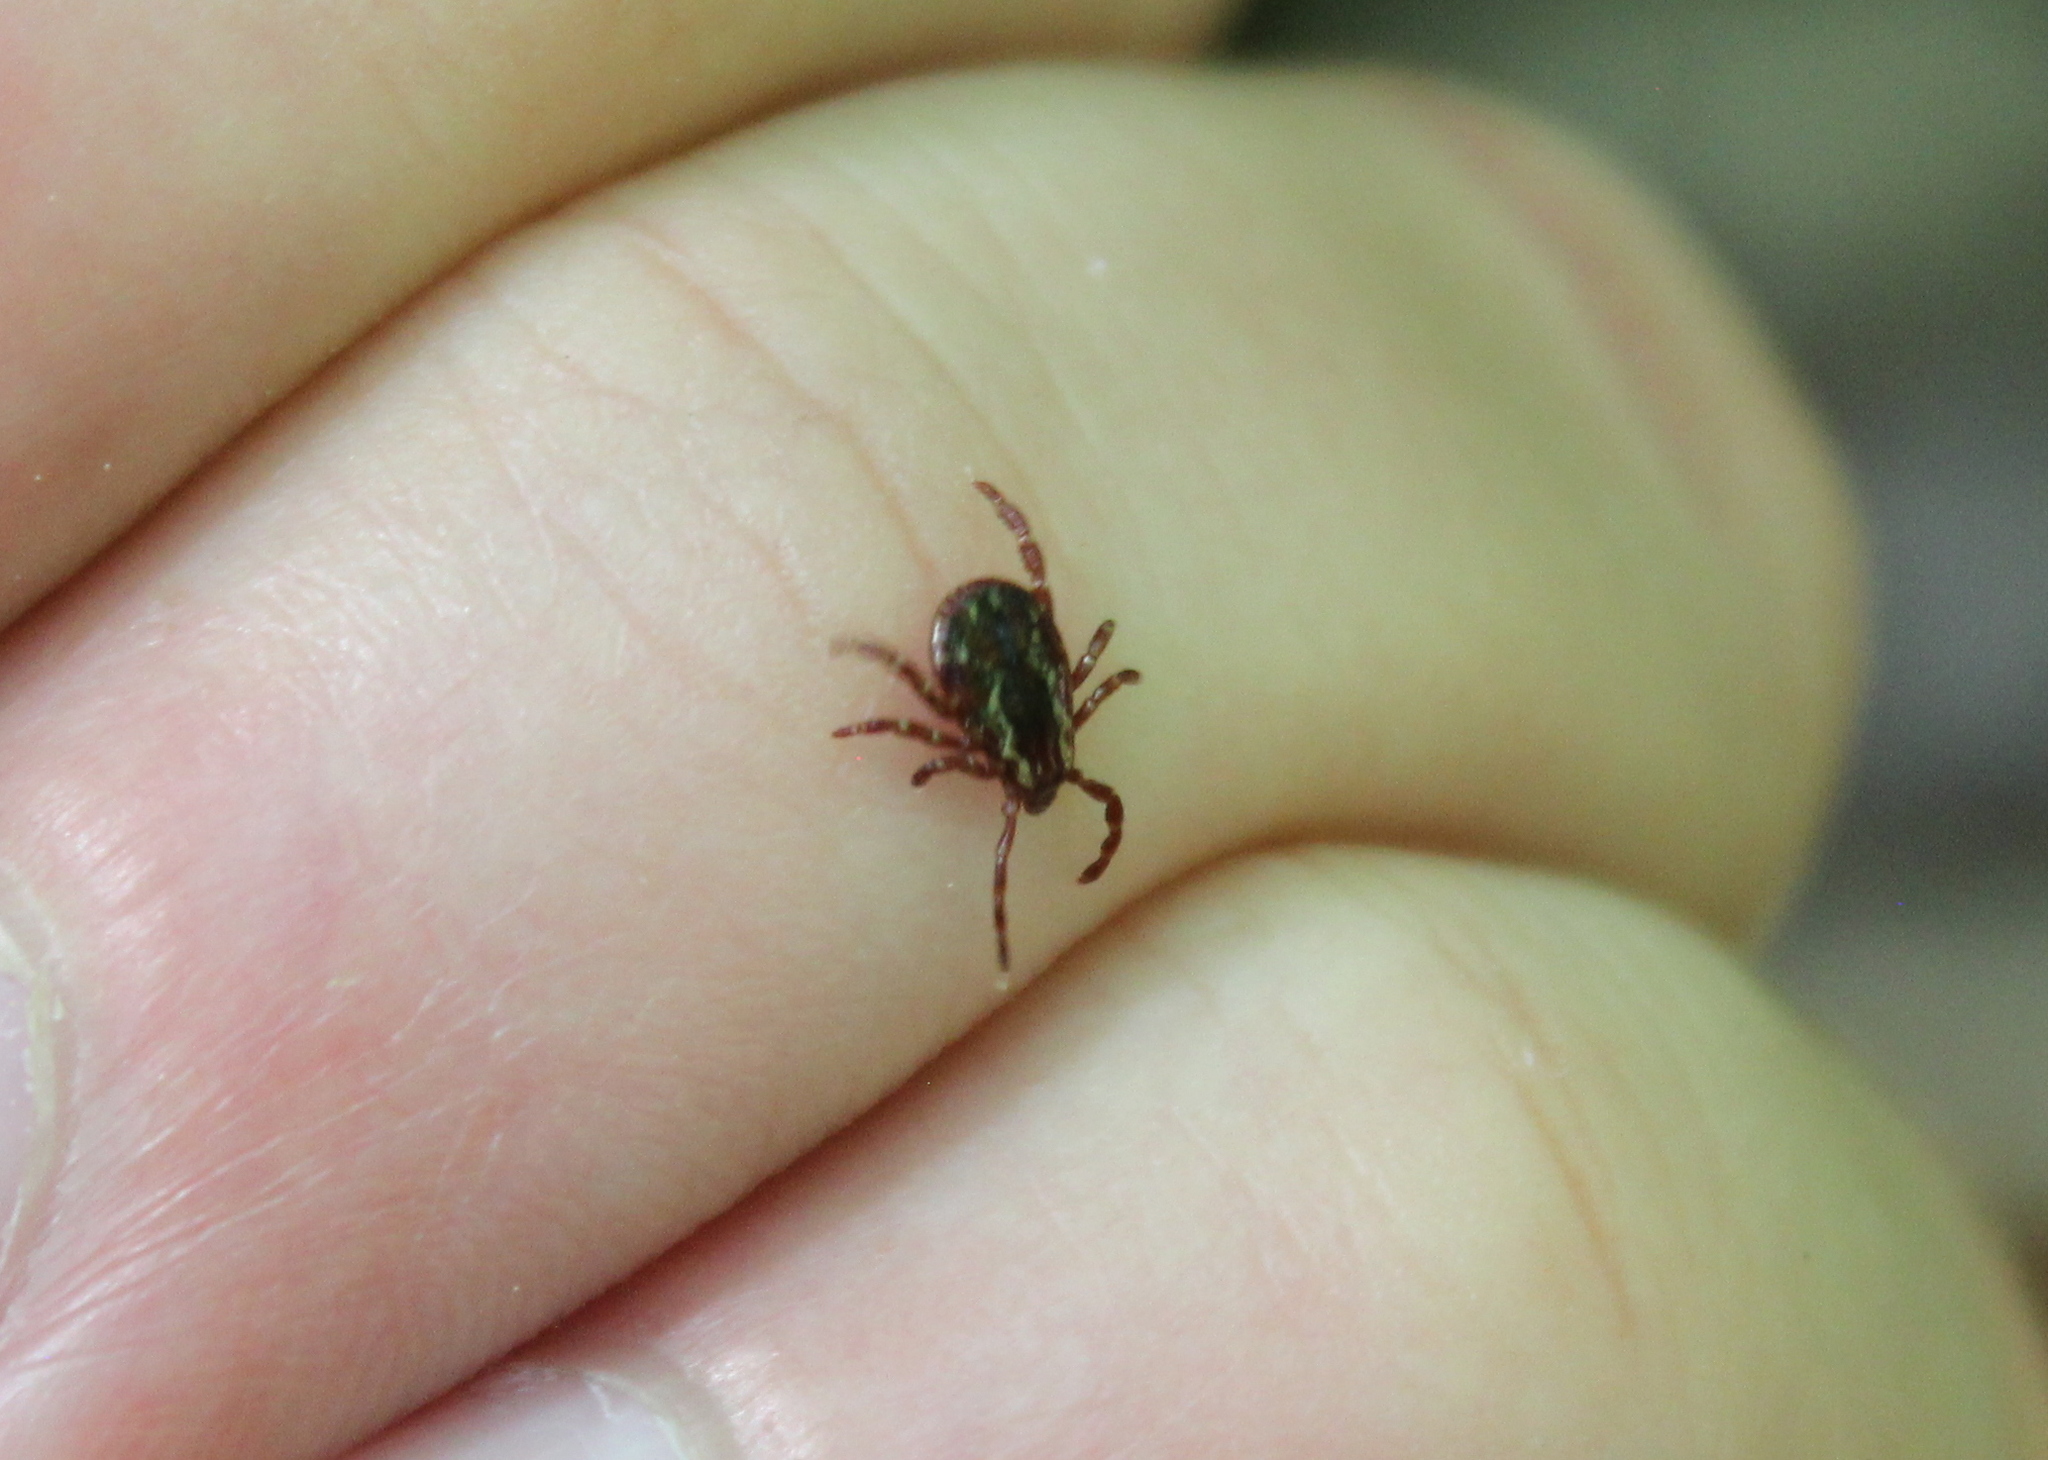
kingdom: Animalia
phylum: Arthropoda
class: Arachnida
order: Ixodida
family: Ixodidae
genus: Dermacentor
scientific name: Dermacentor variabilis
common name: American dog tick
